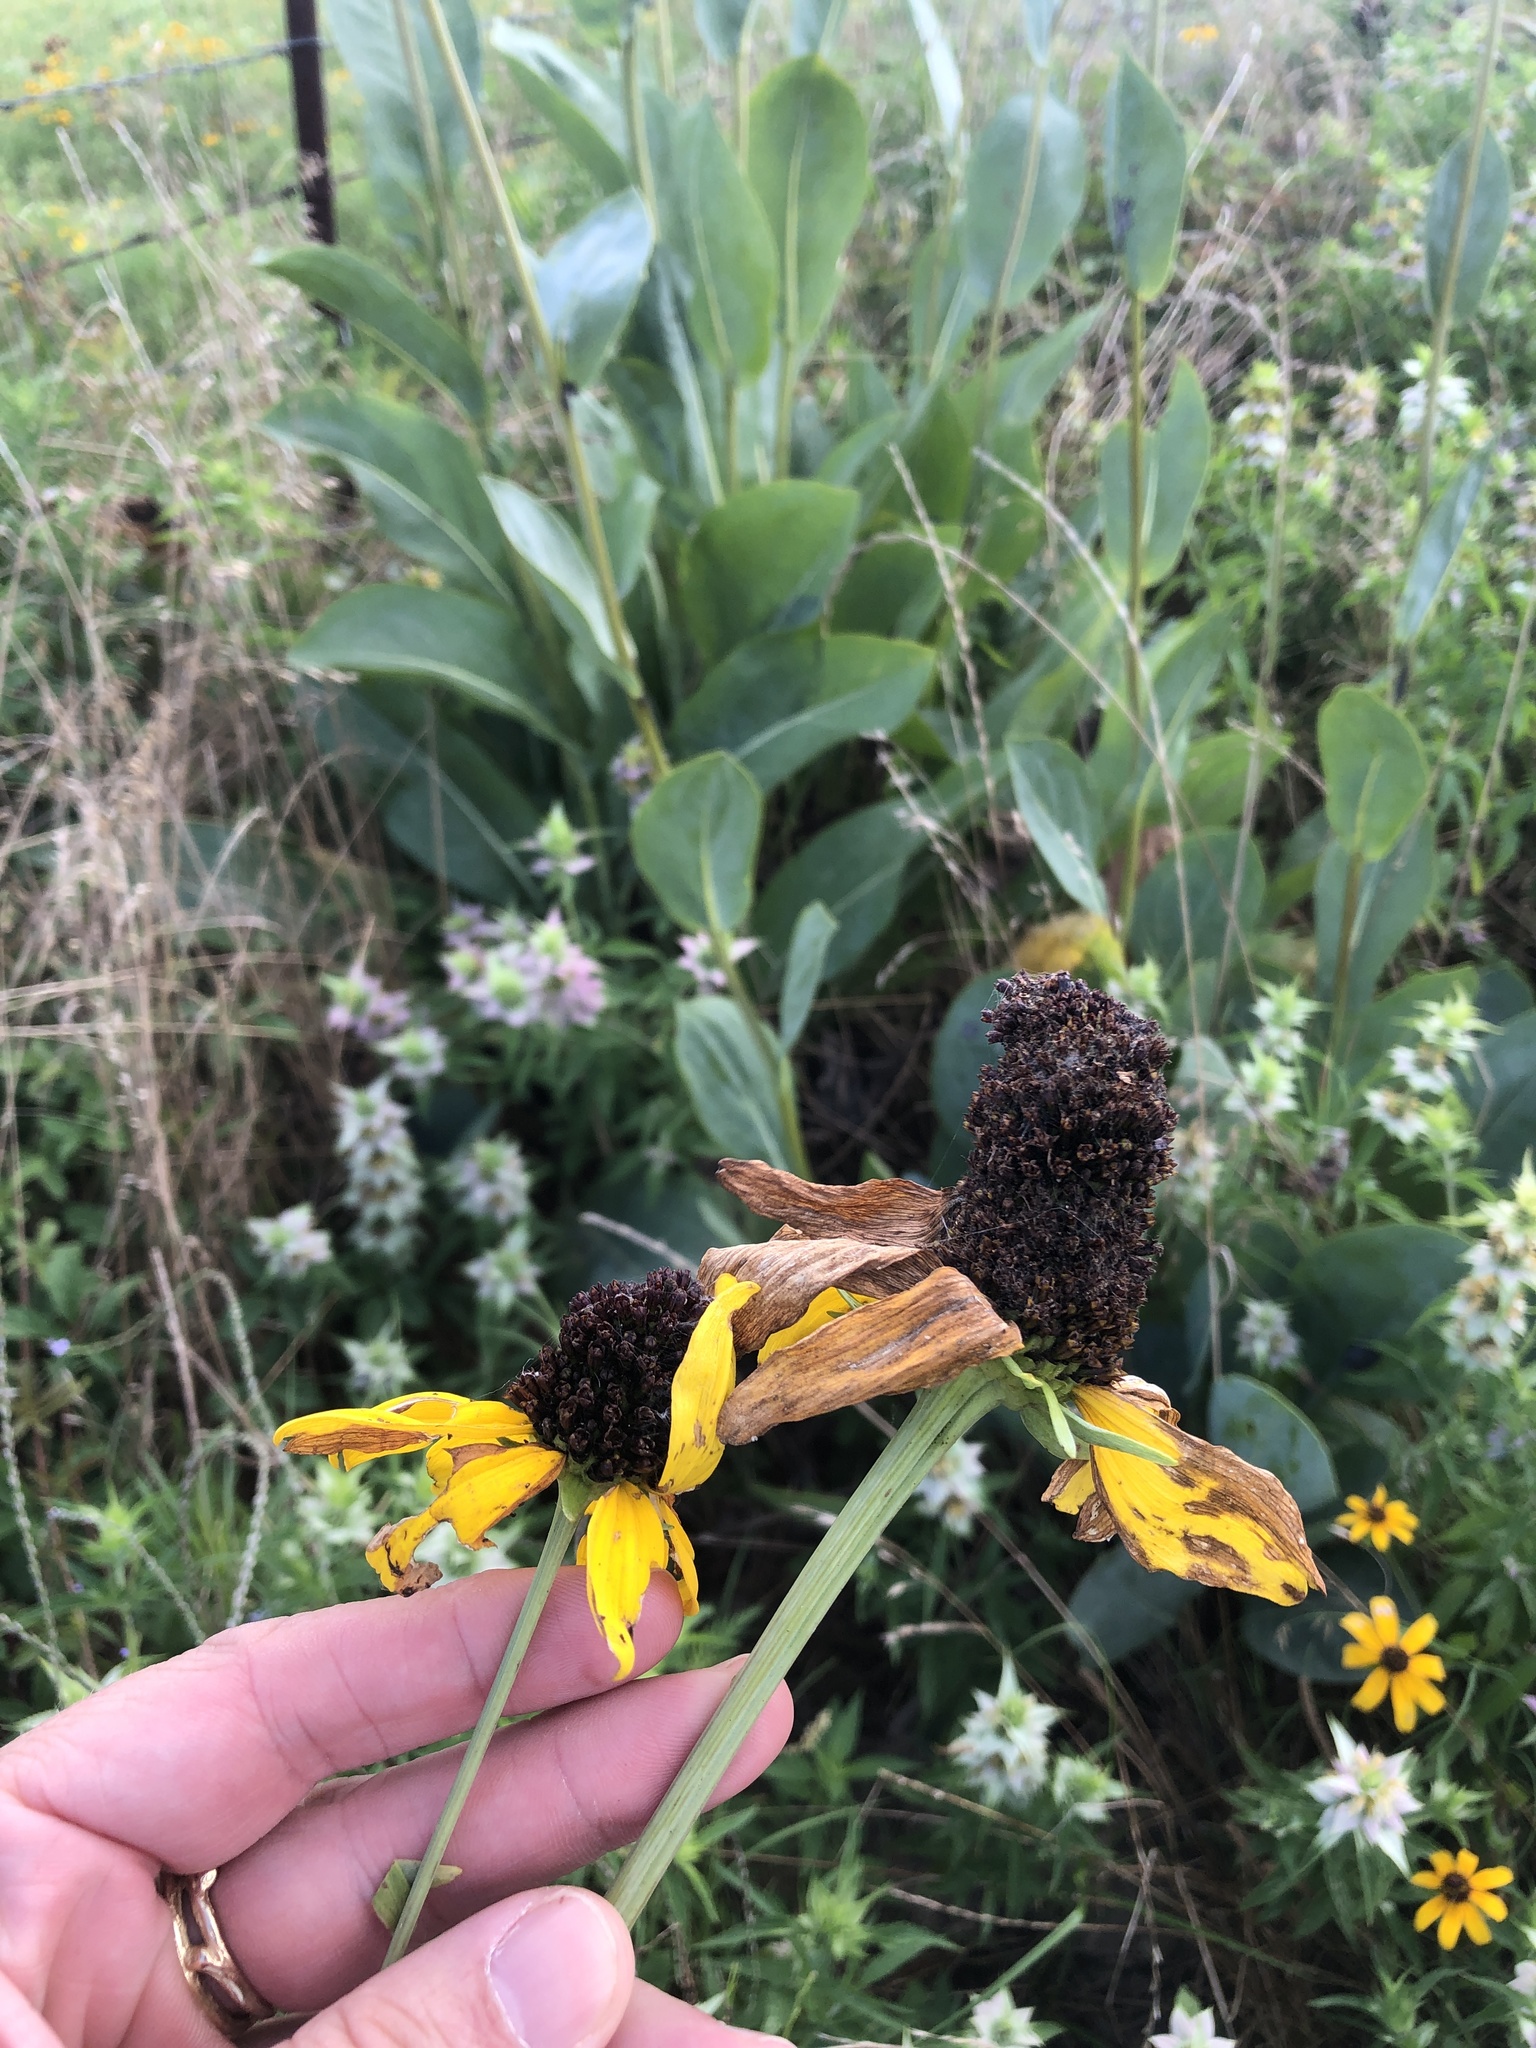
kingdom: Plantae
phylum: Tracheophyta
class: Magnoliopsida
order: Asterales
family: Asteraceae
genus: Rudbeckia
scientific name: Rudbeckia maxima
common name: Cabbage coneflower
